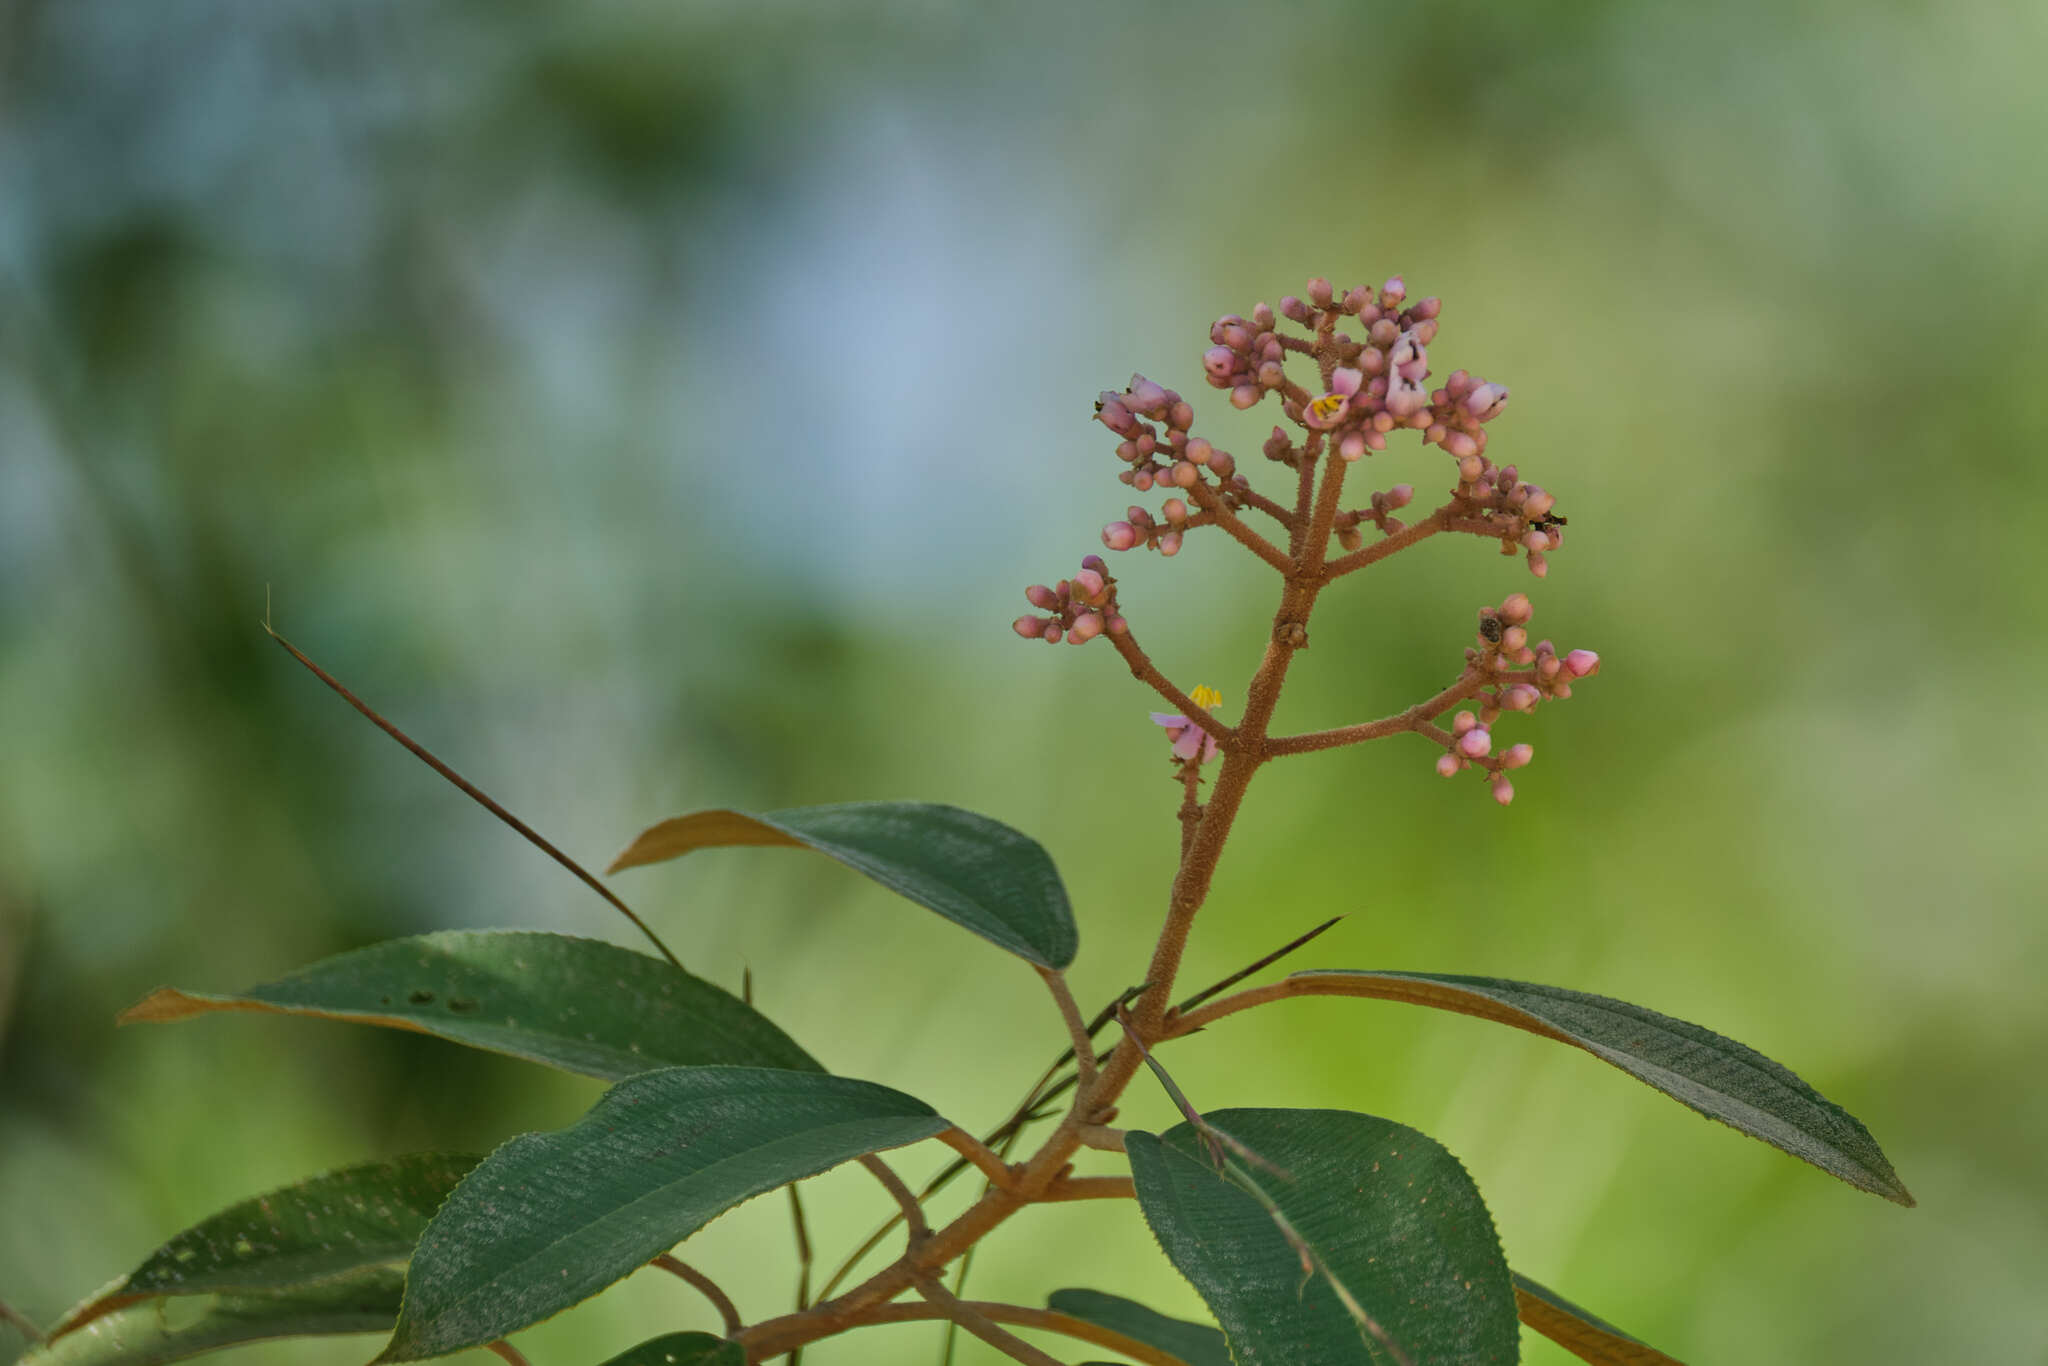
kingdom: Plantae
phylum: Tracheophyta
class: Magnoliopsida
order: Myrtales
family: Melastomataceae
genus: Miconia
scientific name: Miconia xalapensis
